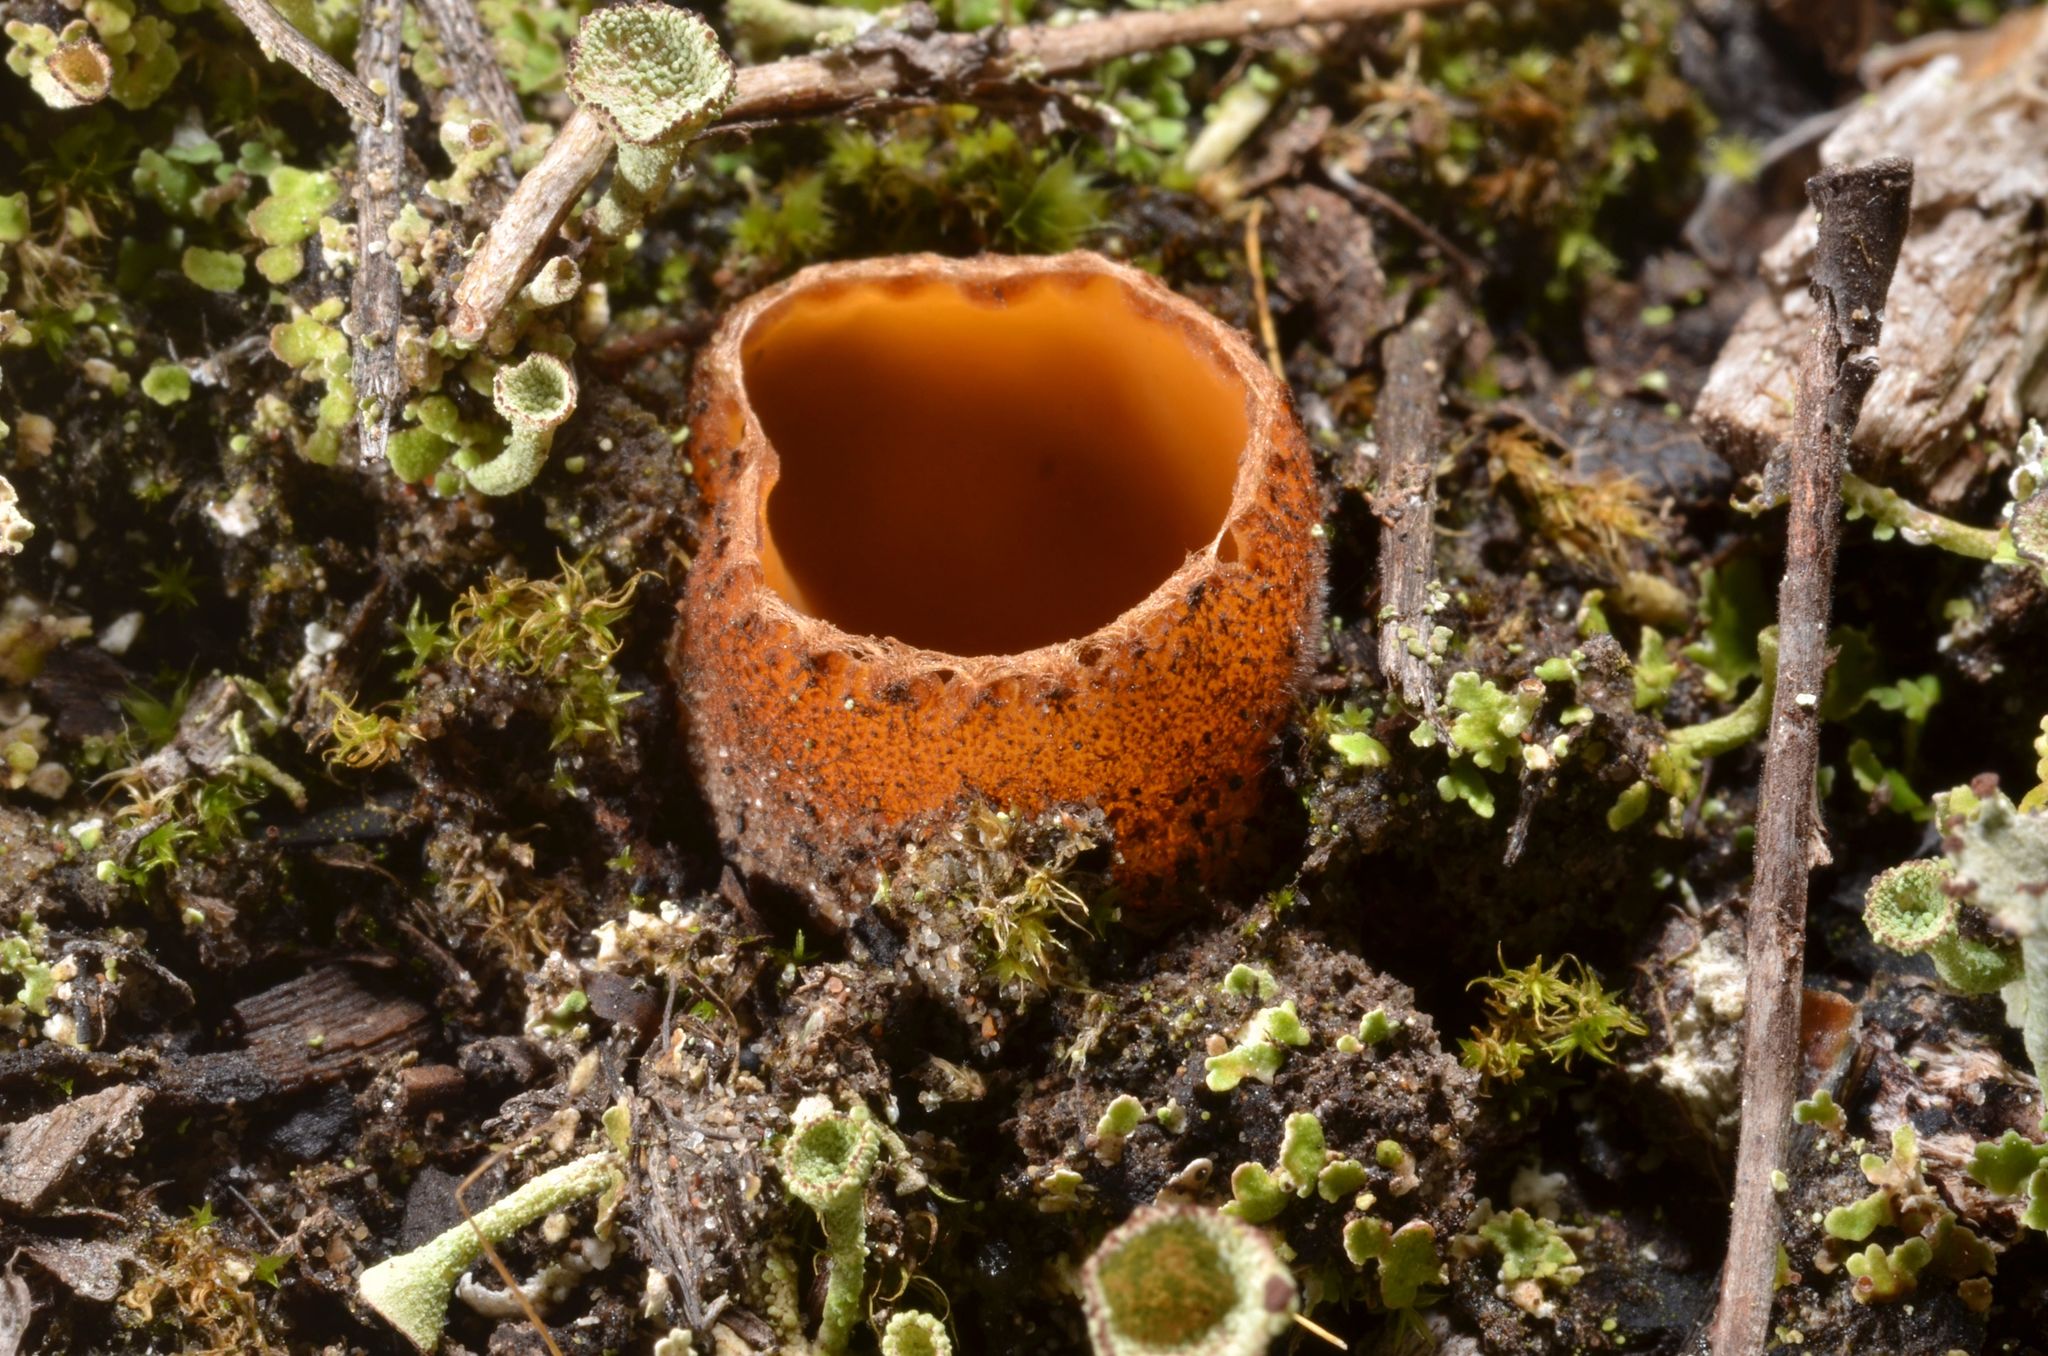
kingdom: Fungi
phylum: Ascomycota
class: Pezizomycetes
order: Pezizales
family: Pyronemataceae
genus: Hoffmannoscypha
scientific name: Hoffmannoscypha pellita
